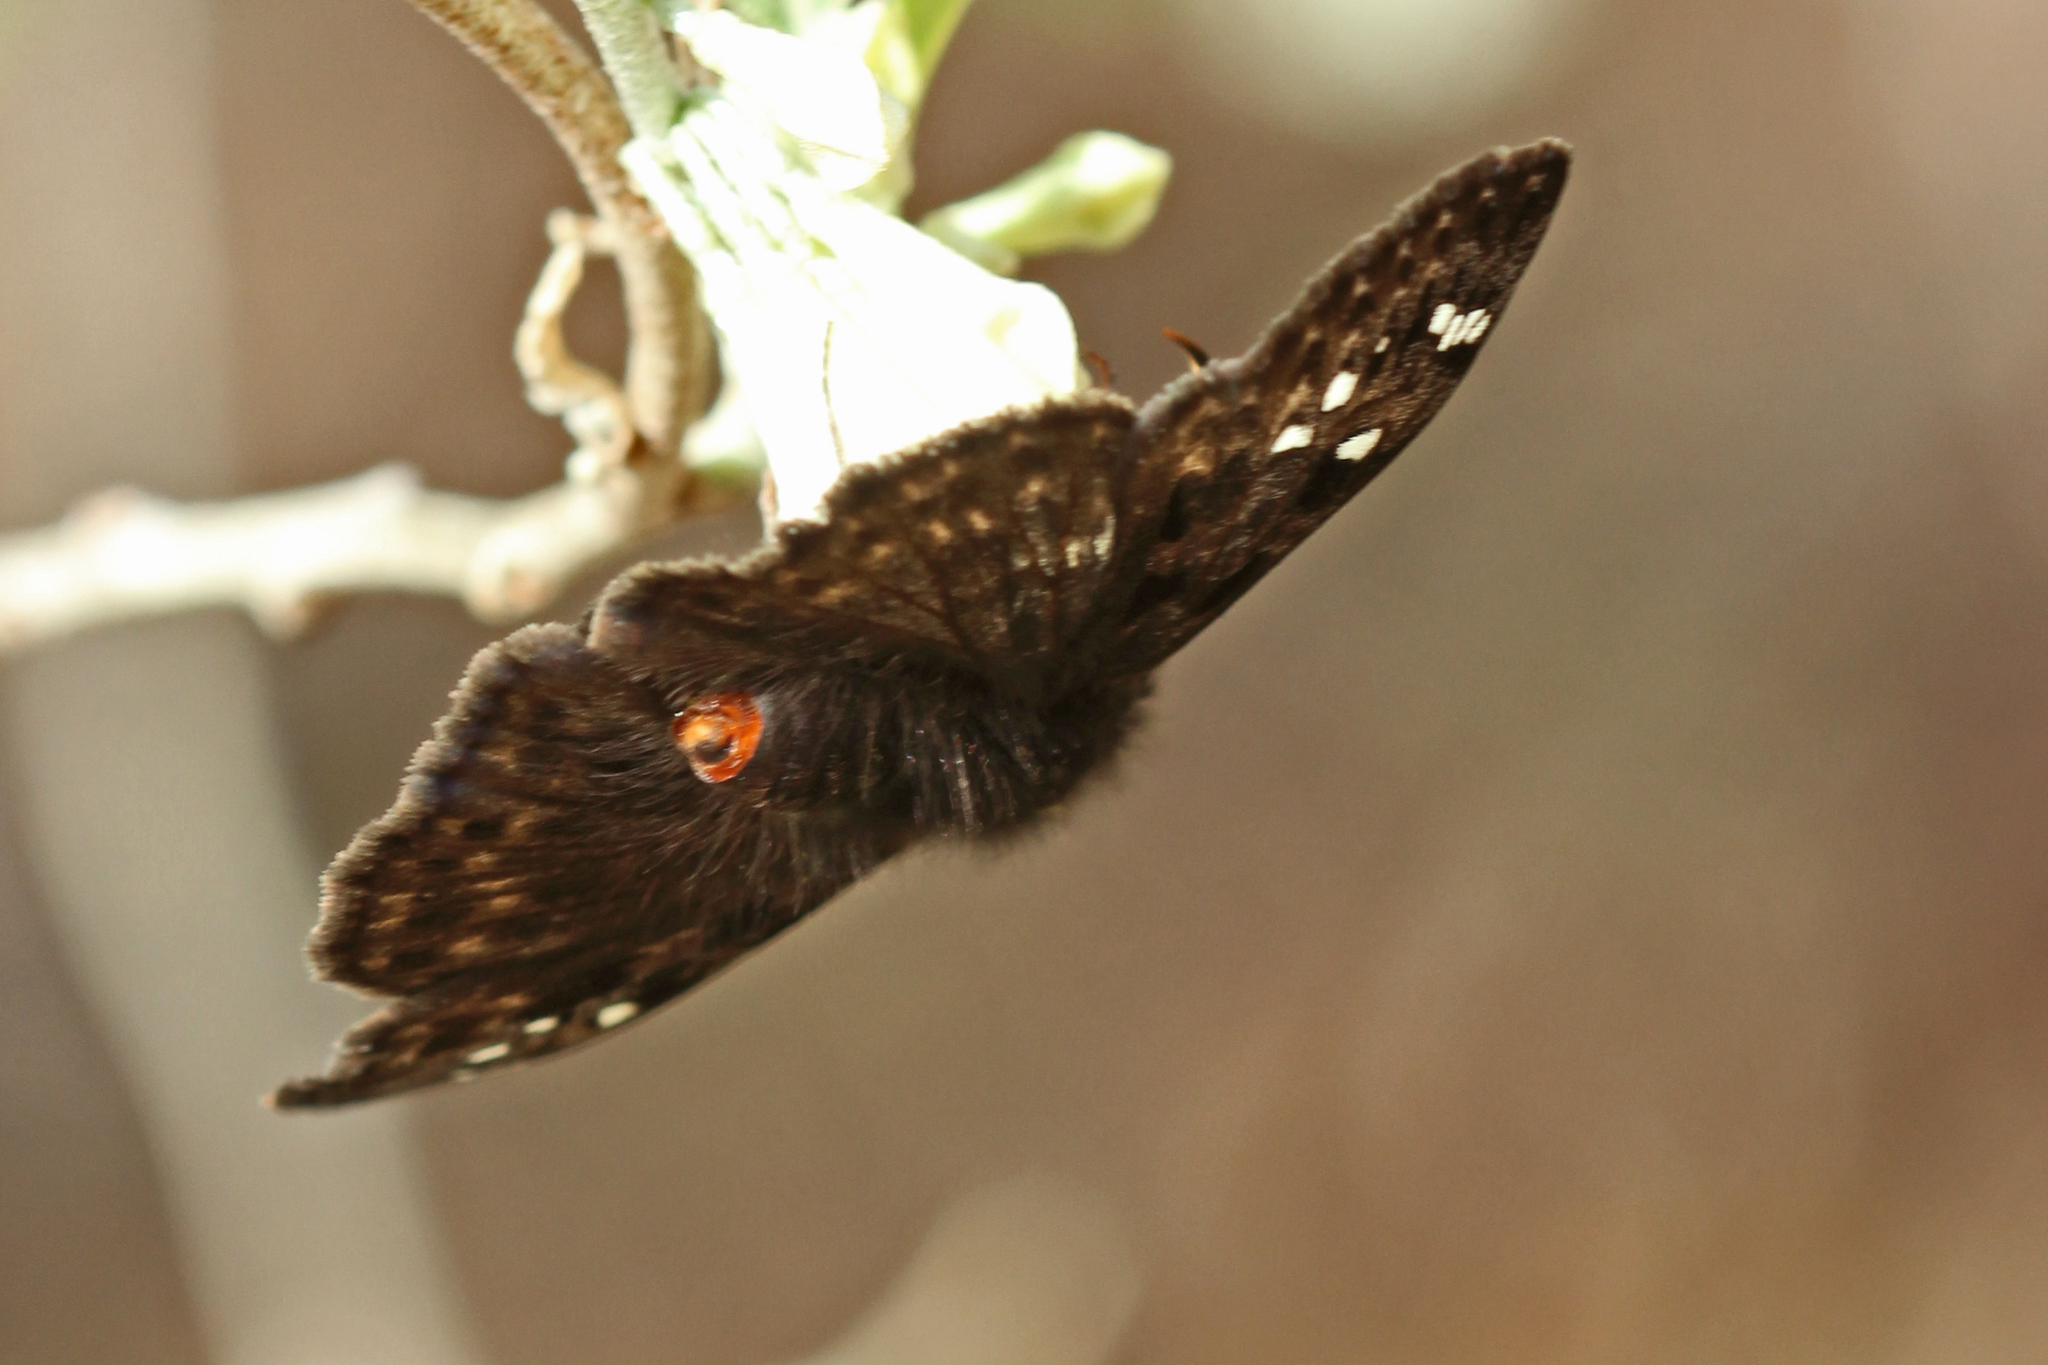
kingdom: Animalia
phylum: Arthropoda
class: Insecta
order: Lepidoptera
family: Hesperiidae
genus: Erynnis
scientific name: Erynnis juvenalis
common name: Juvenal's duskywing
